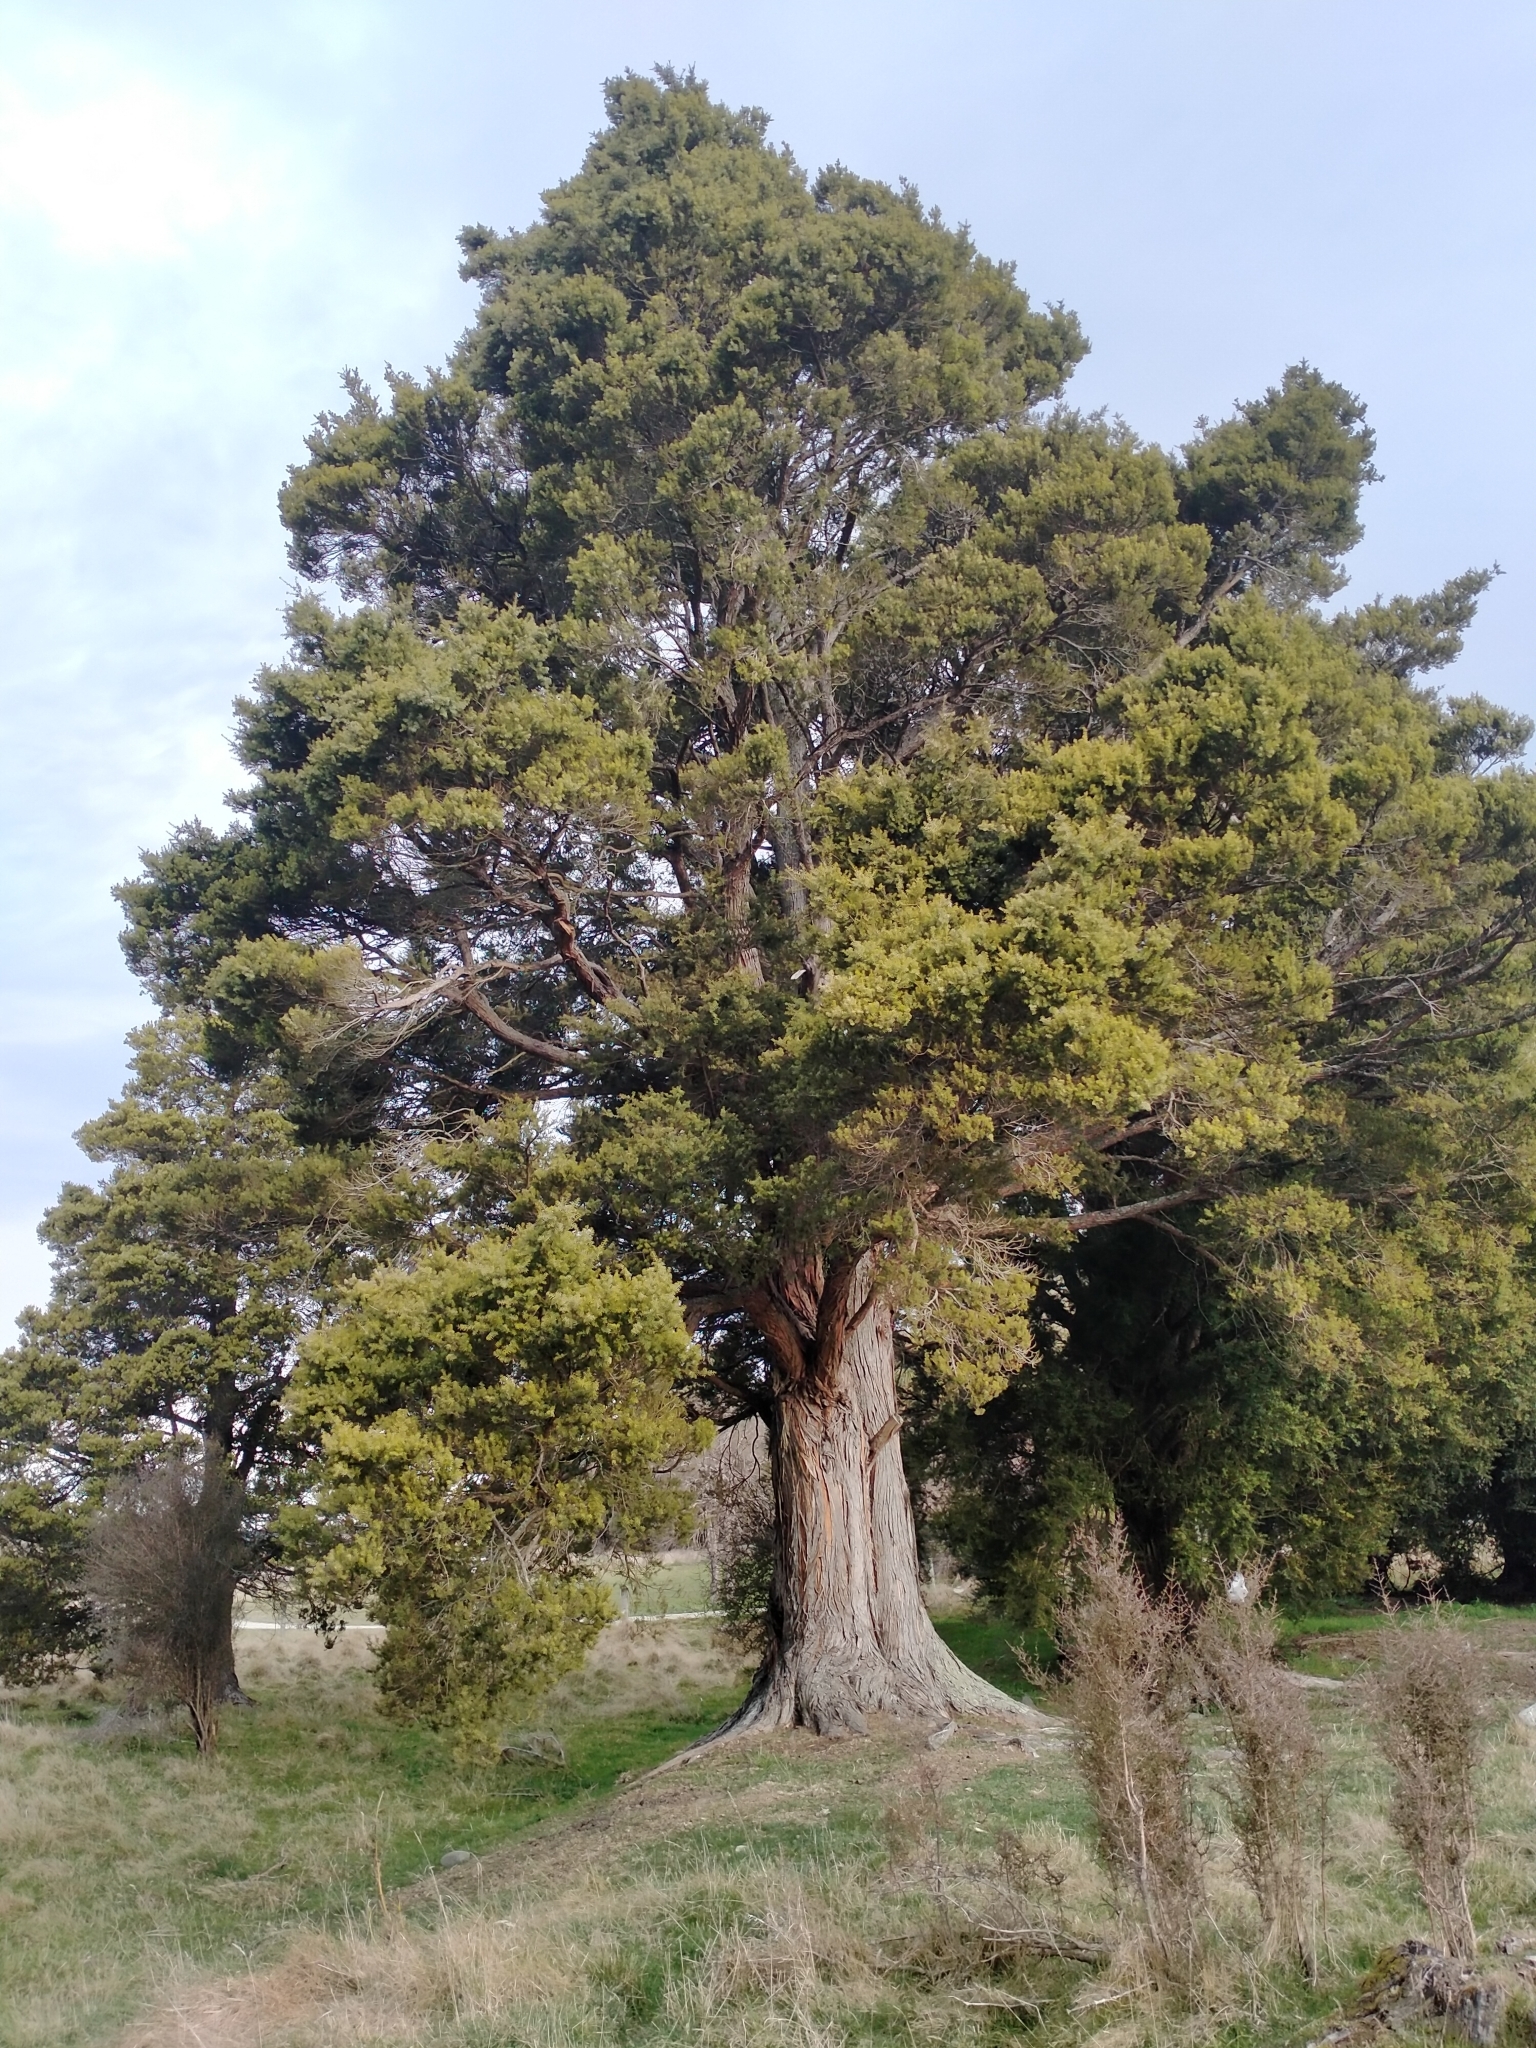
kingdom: Plantae
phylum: Tracheophyta
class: Pinopsida
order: Pinales
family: Podocarpaceae
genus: Podocarpus
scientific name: Podocarpus totara
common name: Totara
